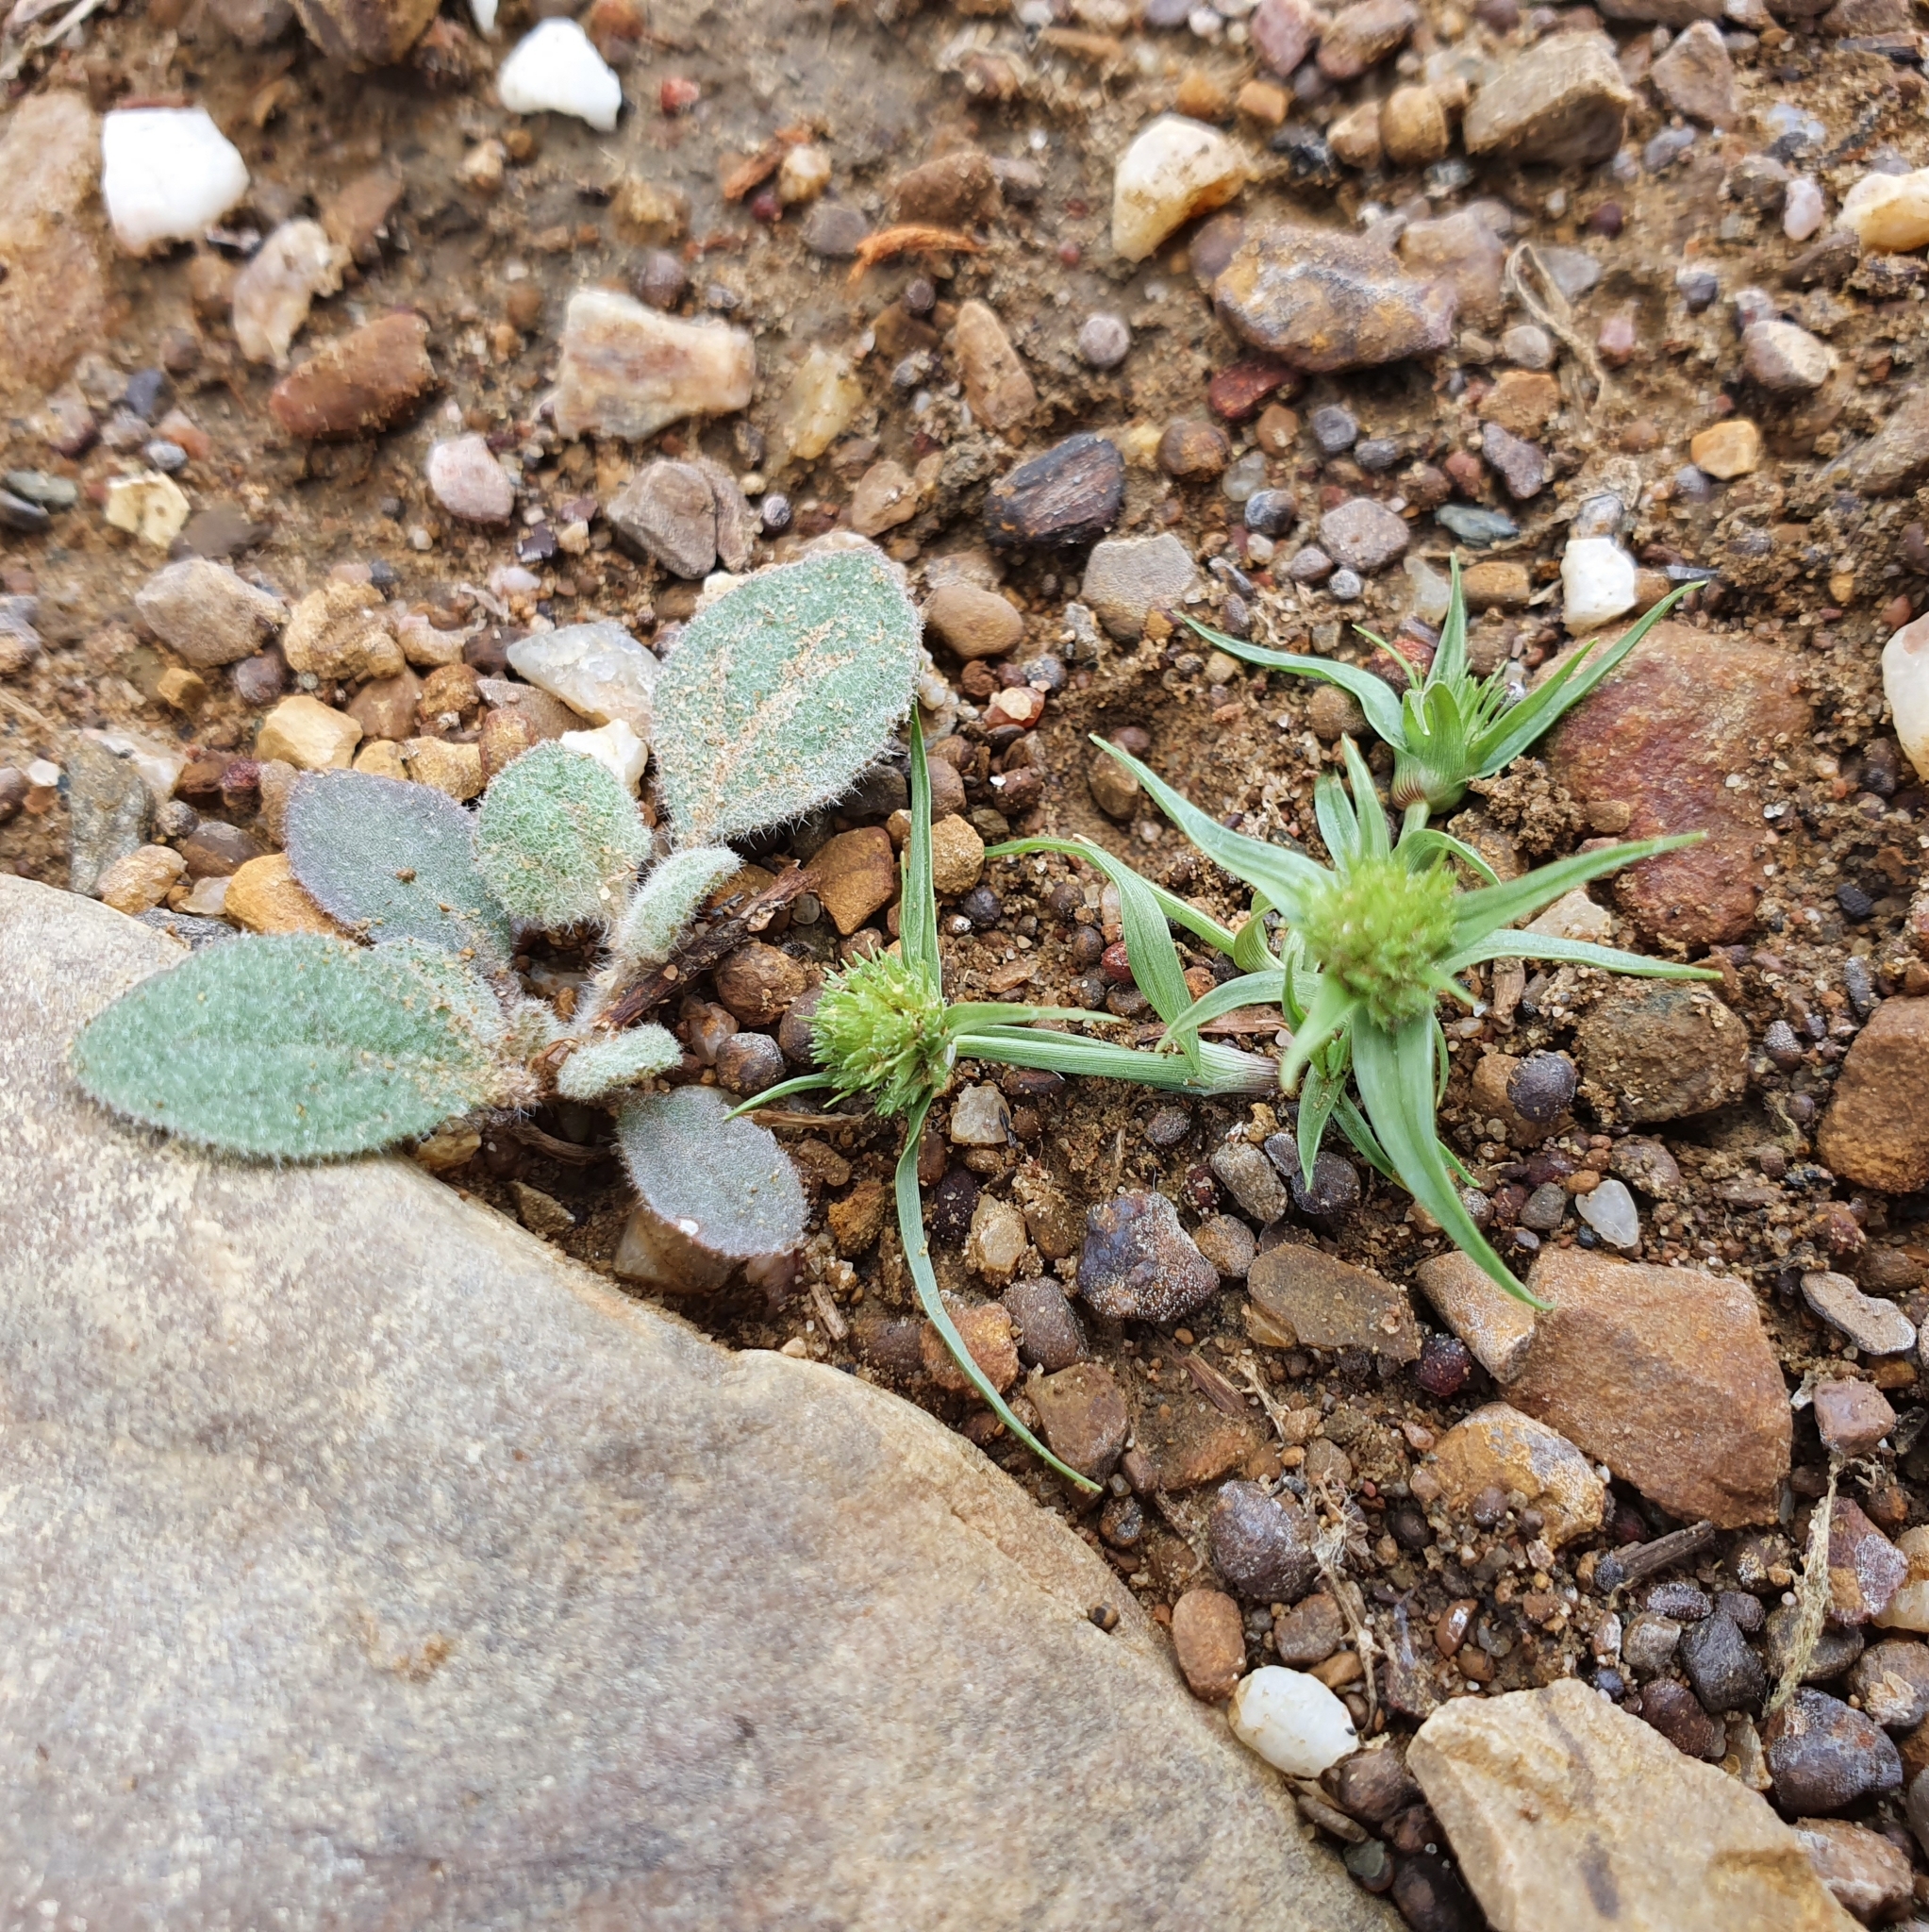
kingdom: Plantae
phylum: Tracheophyta
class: Liliopsida
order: Poales
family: Cyperaceae
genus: Cyperus
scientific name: Cyperus michelianus
